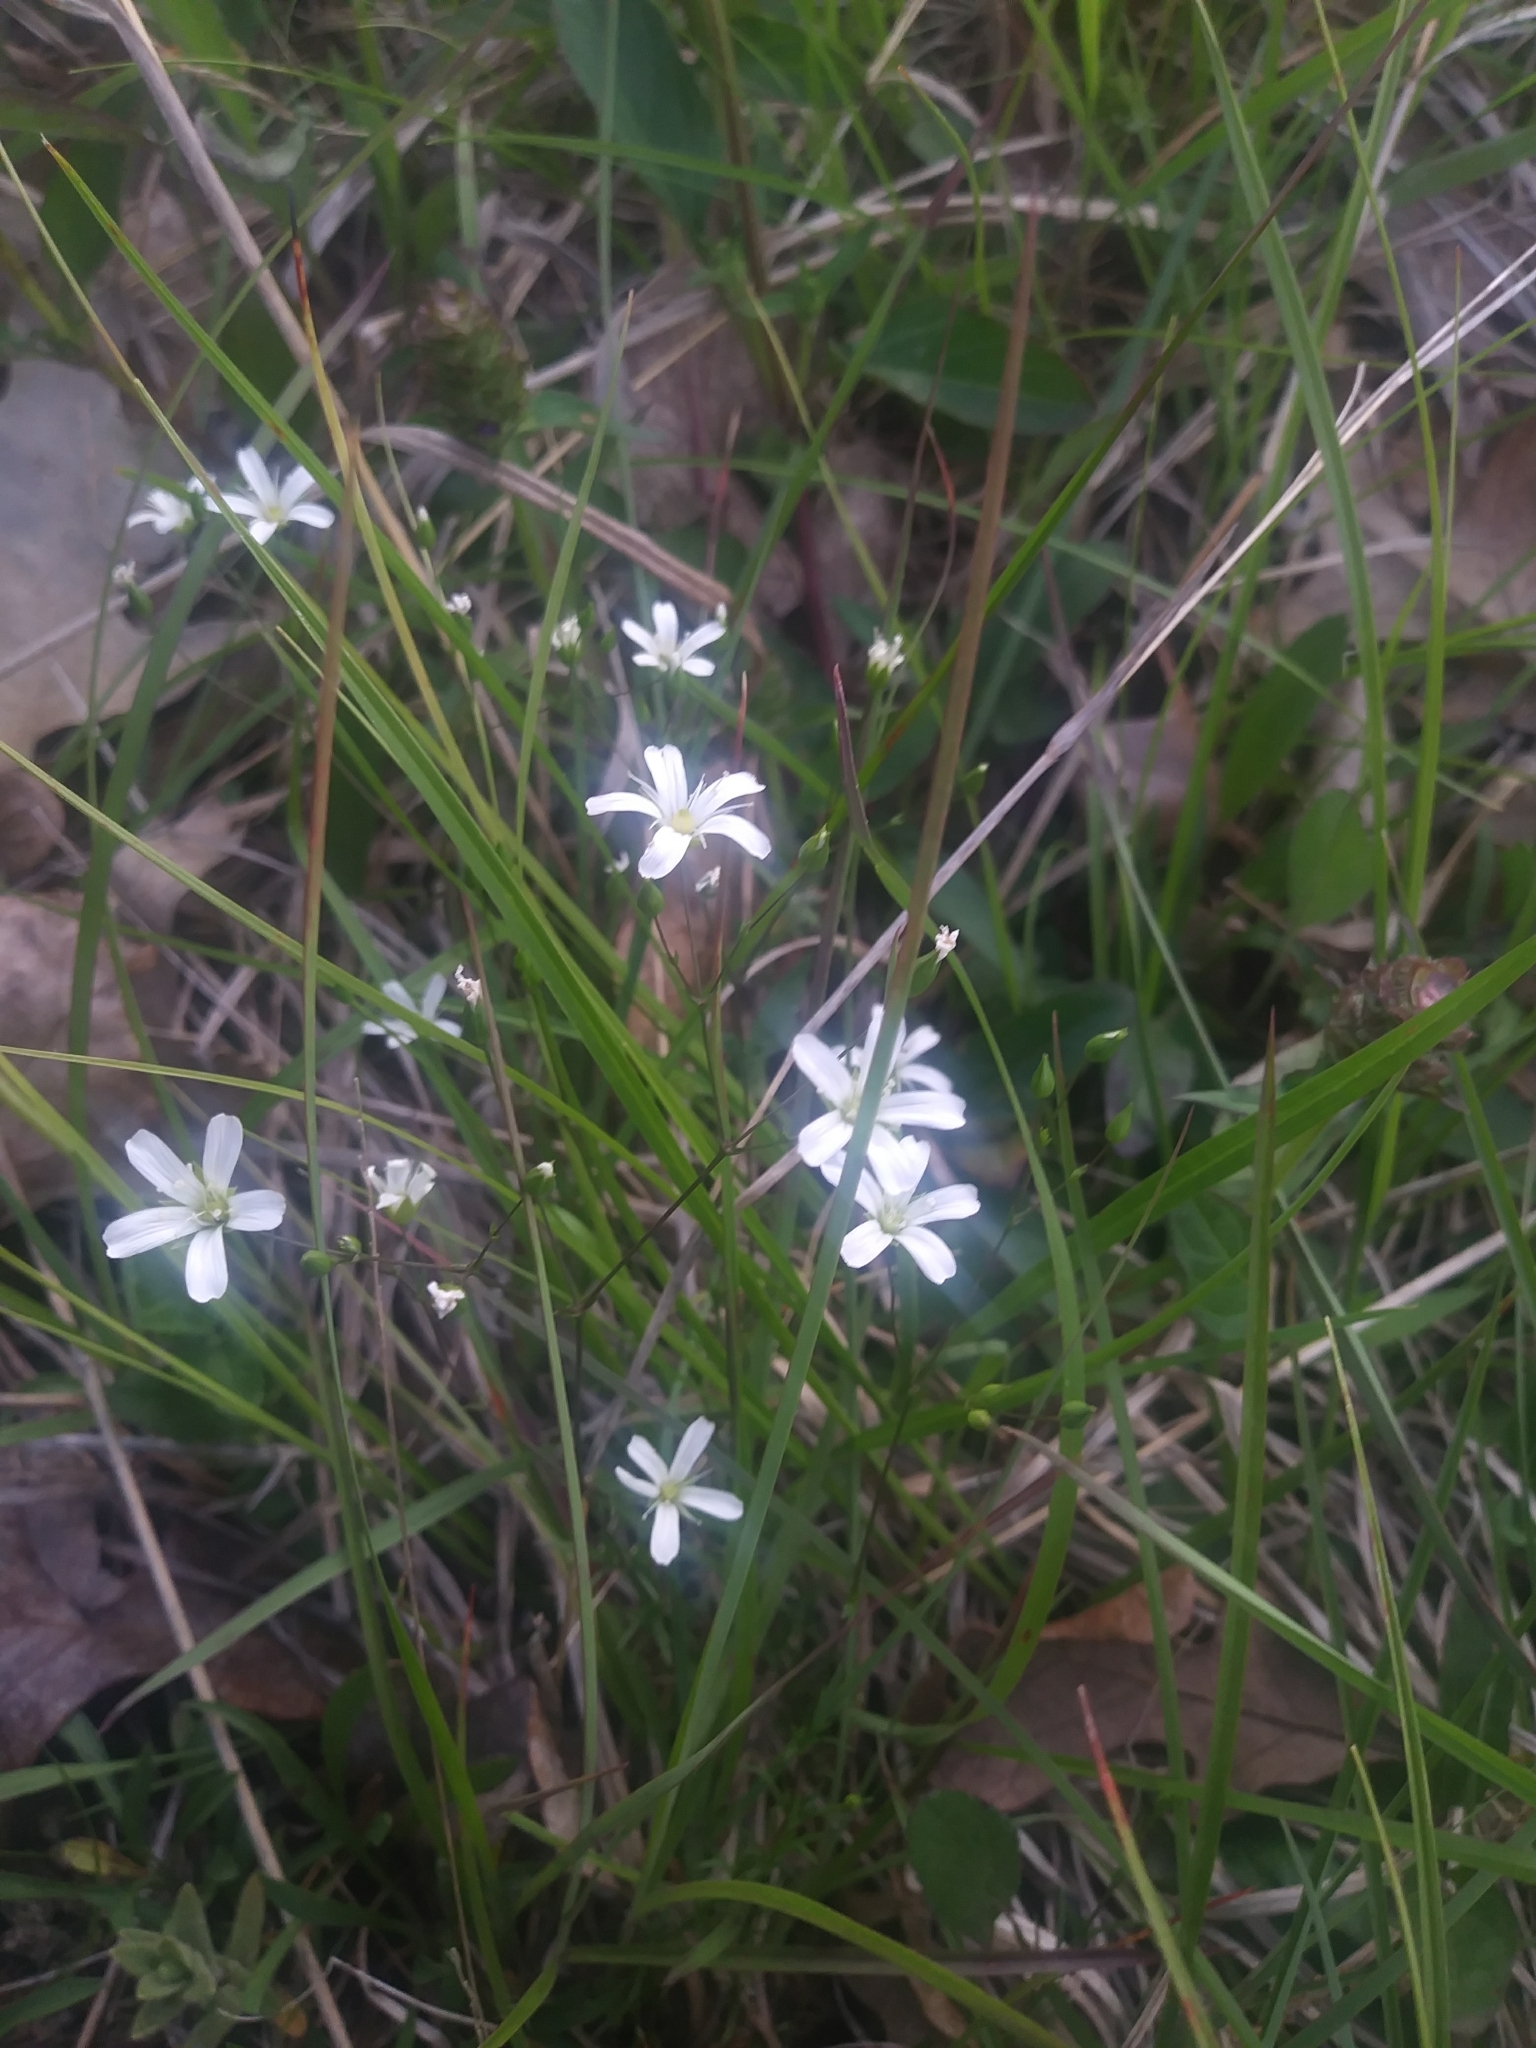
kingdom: Plantae
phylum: Tracheophyta
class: Magnoliopsida
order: Caryophyllales
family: Caryophyllaceae
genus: Sabulina
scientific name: Sabulina michauxii
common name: Michaux's stitchwort
